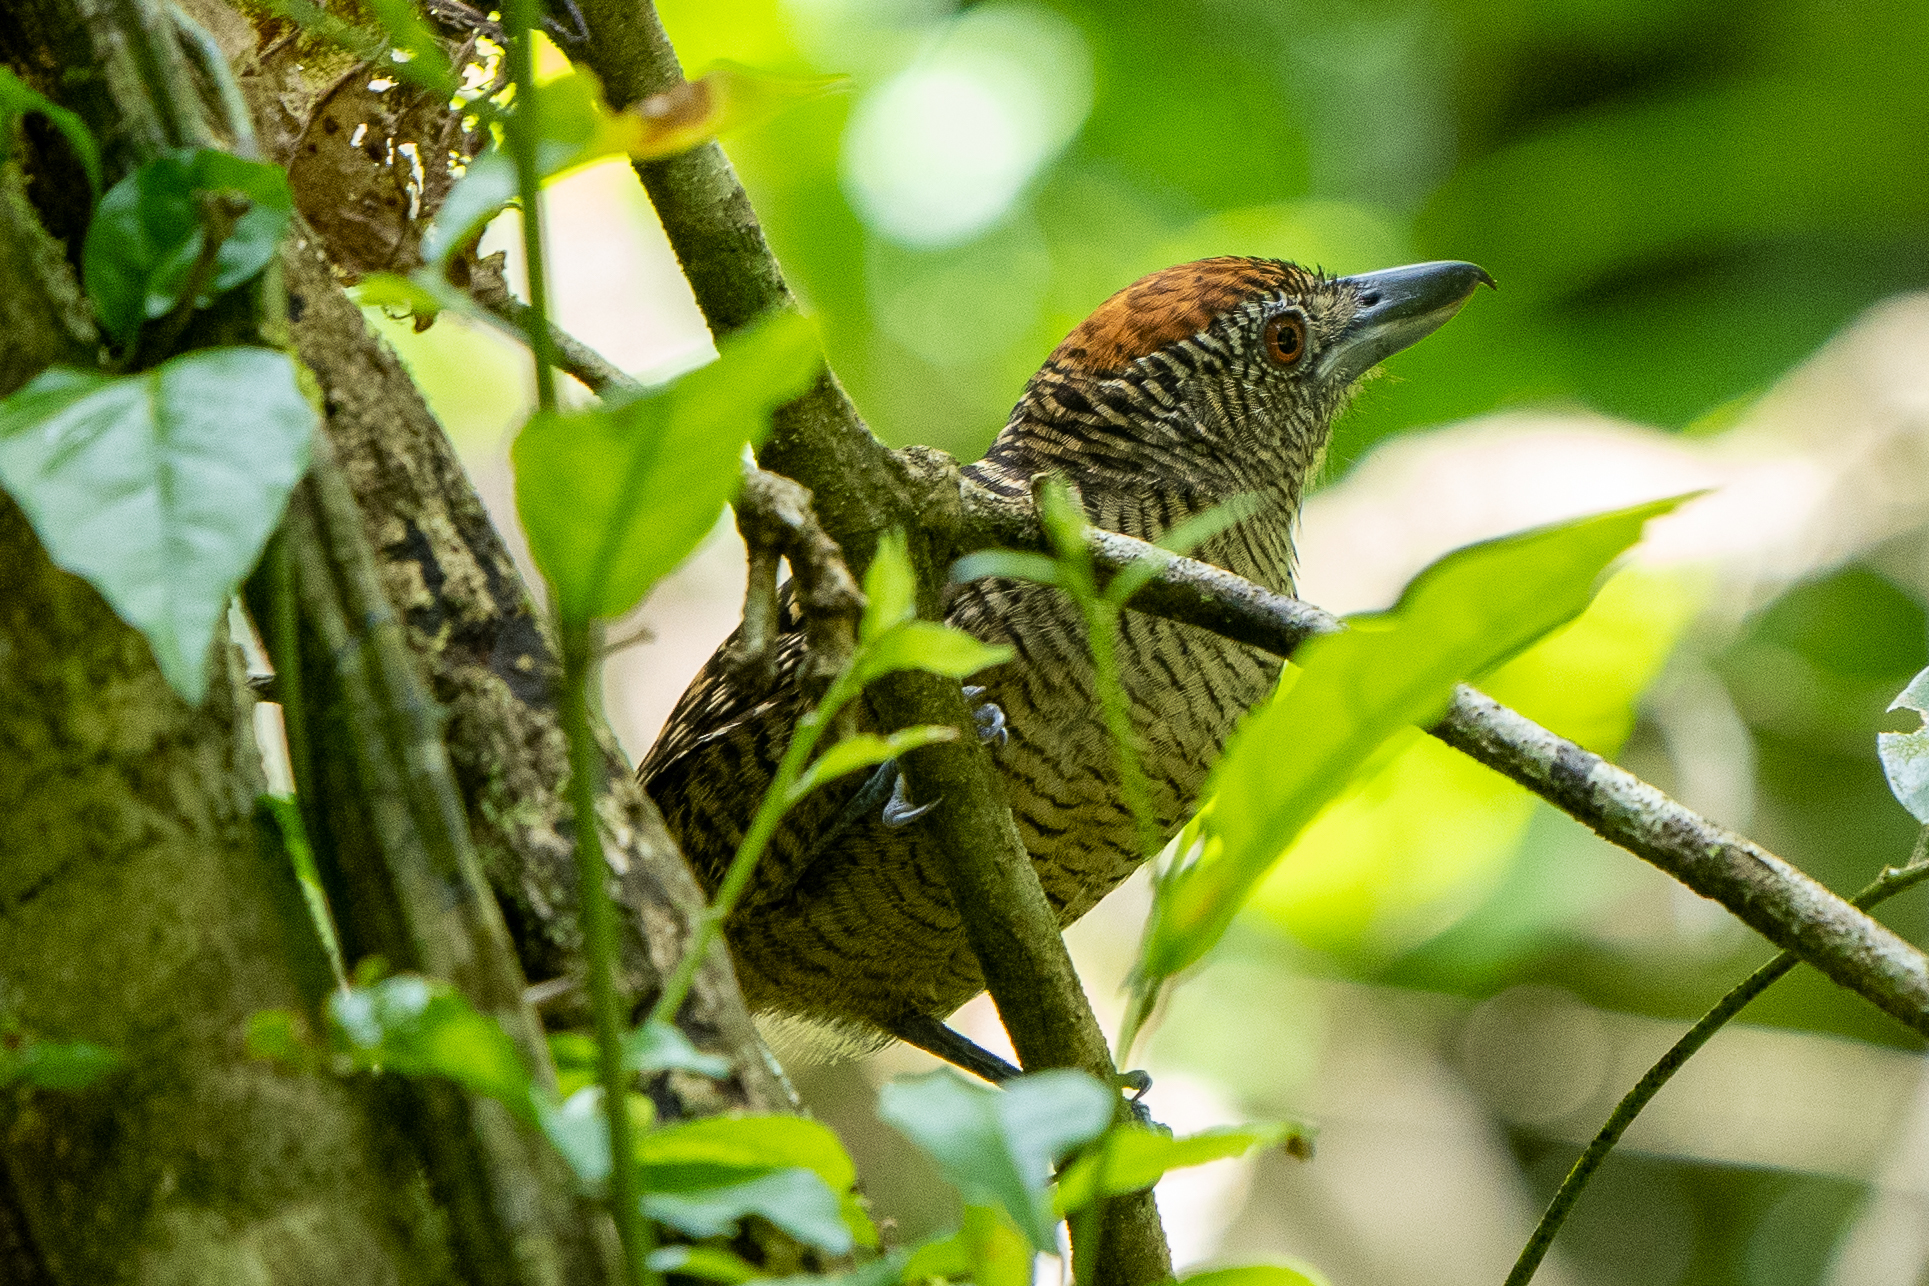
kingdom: Animalia
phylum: Chordata
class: Aves
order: Passeriformes
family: Thamnophilidae
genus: Cymbilaimus
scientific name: Cymbilaimus lineatus
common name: Fasciated antshrike
